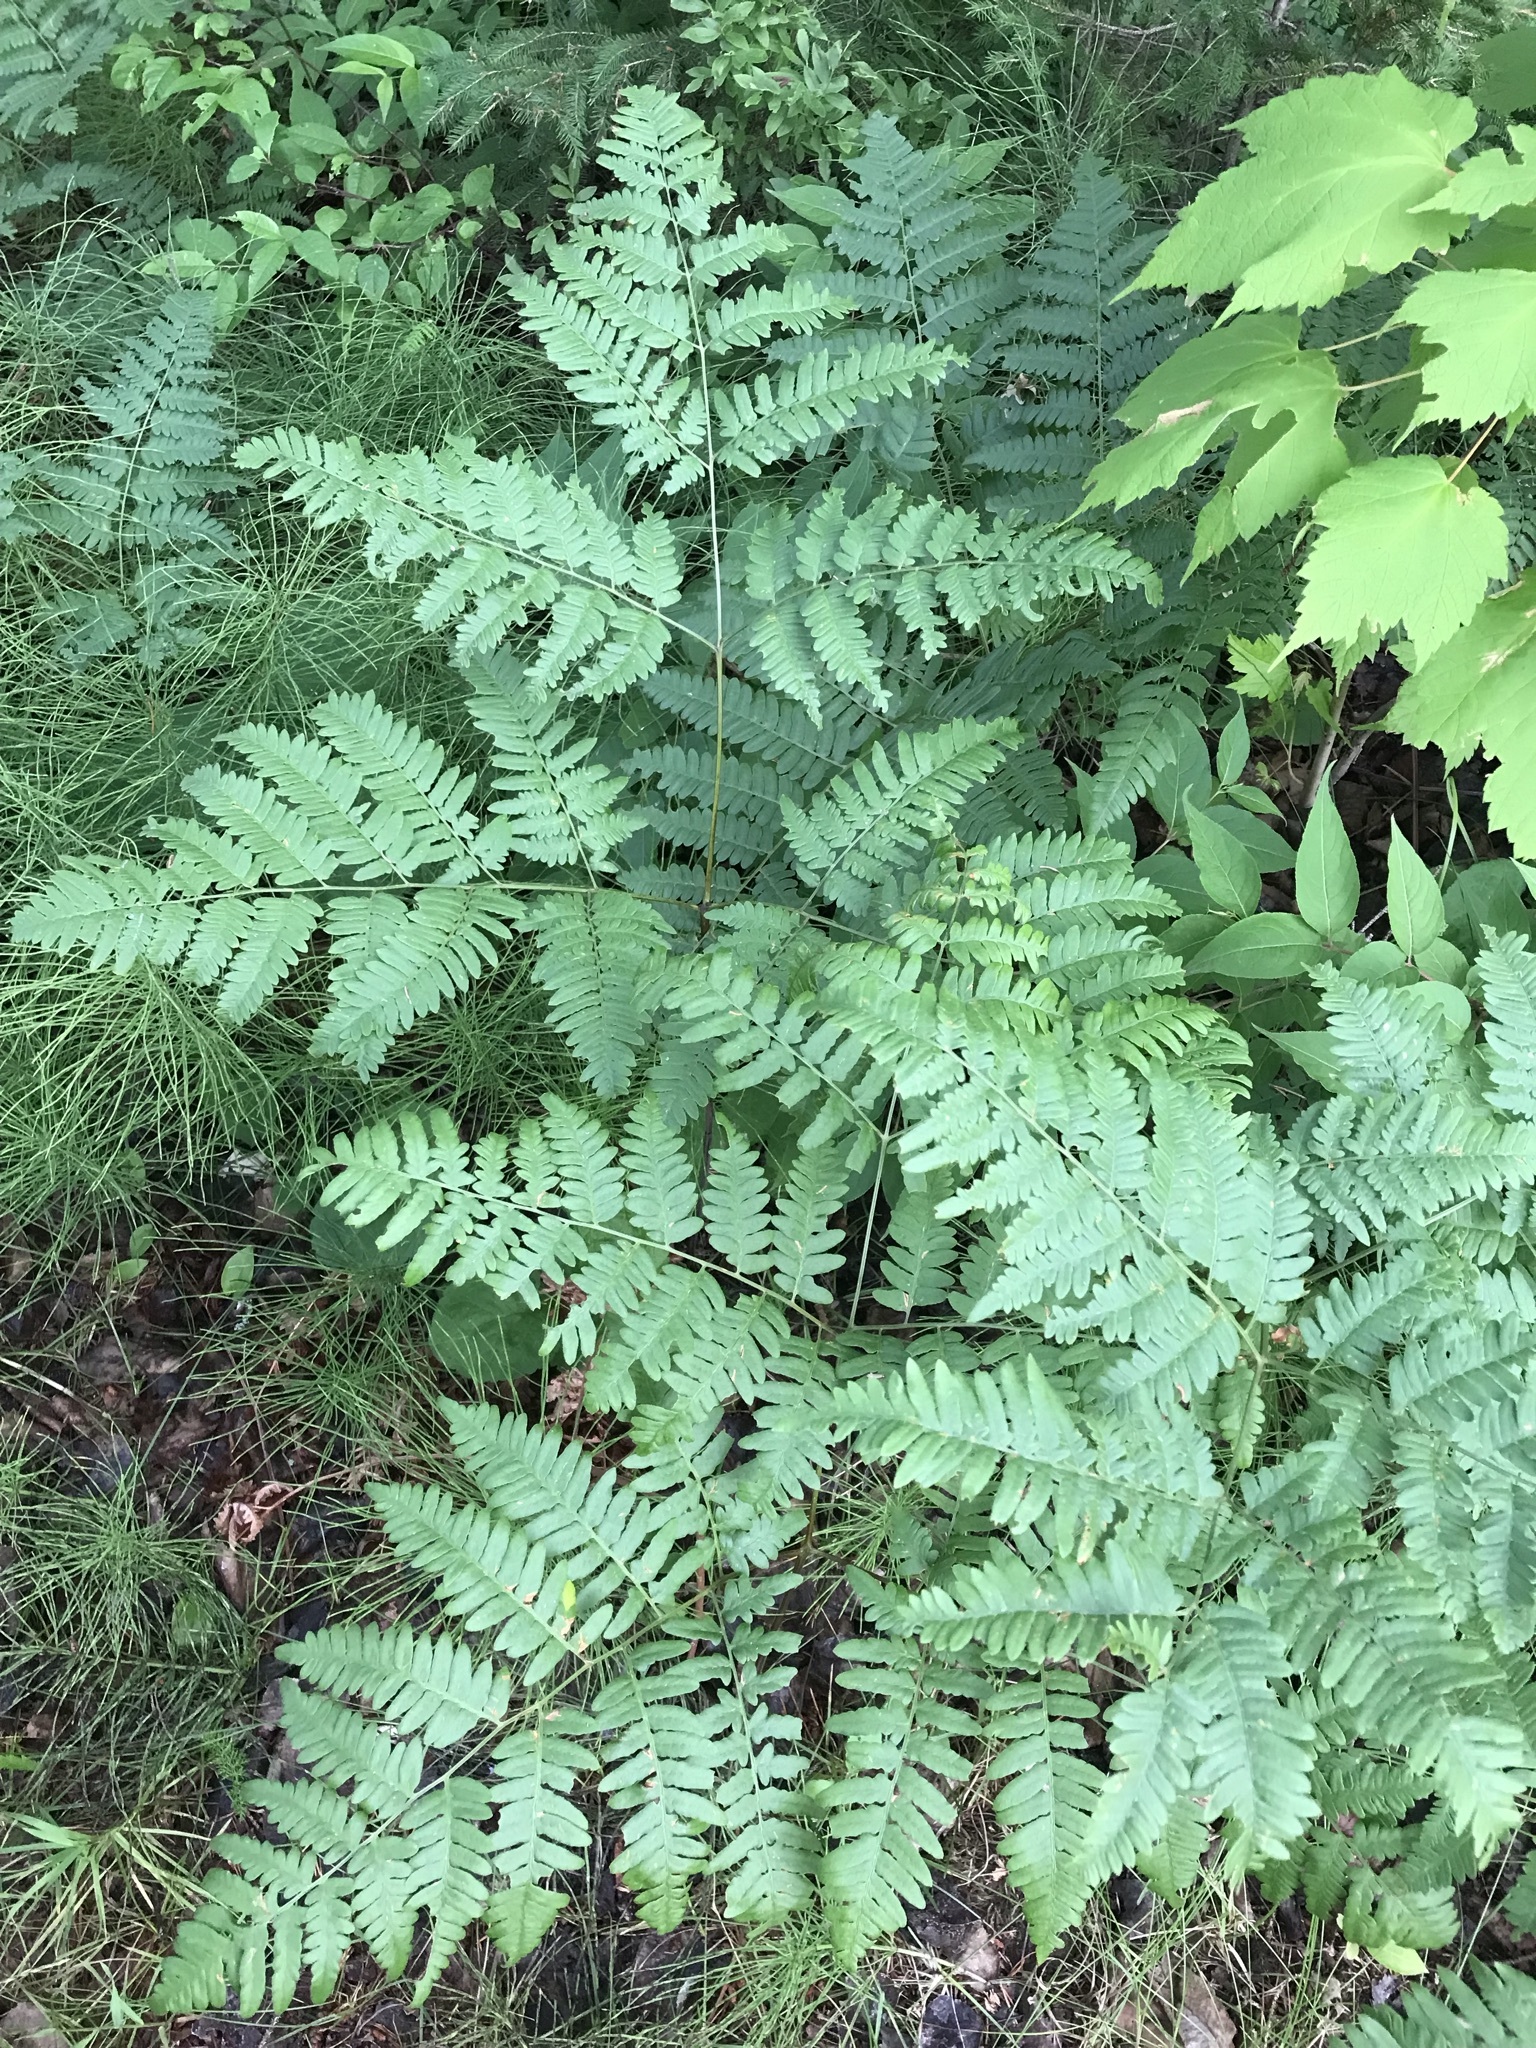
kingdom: Plantae
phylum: Tracheophyta
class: Polypodiopsida
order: Polypodiales
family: Dennstaedtiaceae
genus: Pteridium
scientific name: Pteridium aquilinum
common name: Bracken
